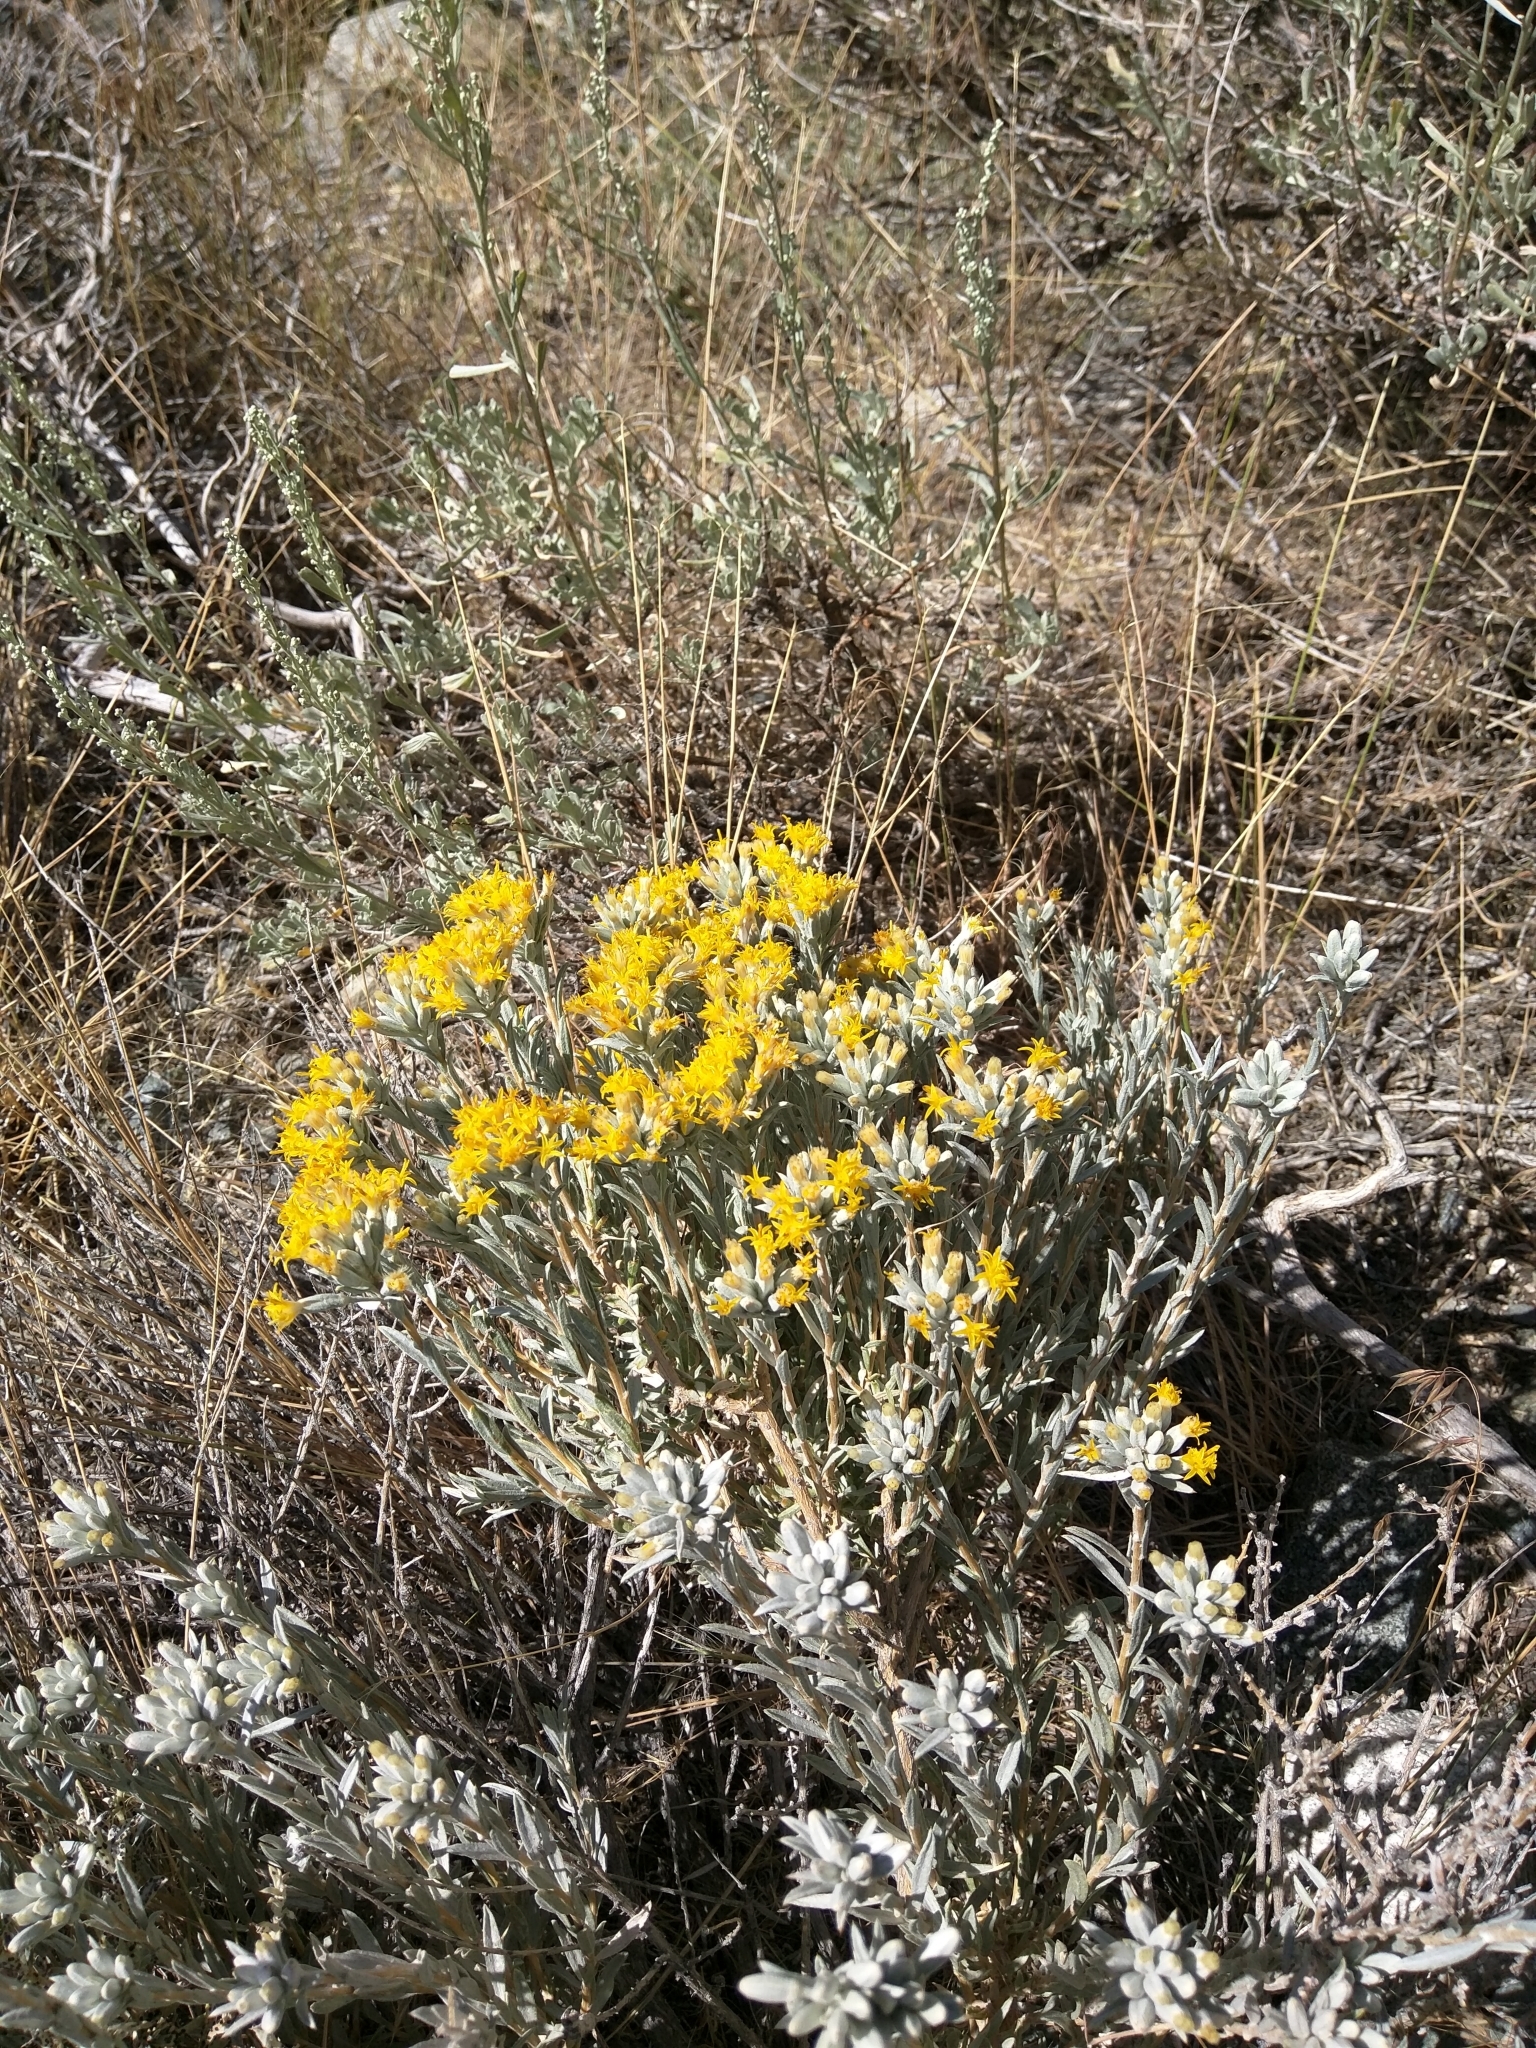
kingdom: Plantae
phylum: Tracheophyta
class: Magnoliopsida
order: Asterales
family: Asteraceae
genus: Tetradymia
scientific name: Tetradymia canescens
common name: Spineless horsebrush
